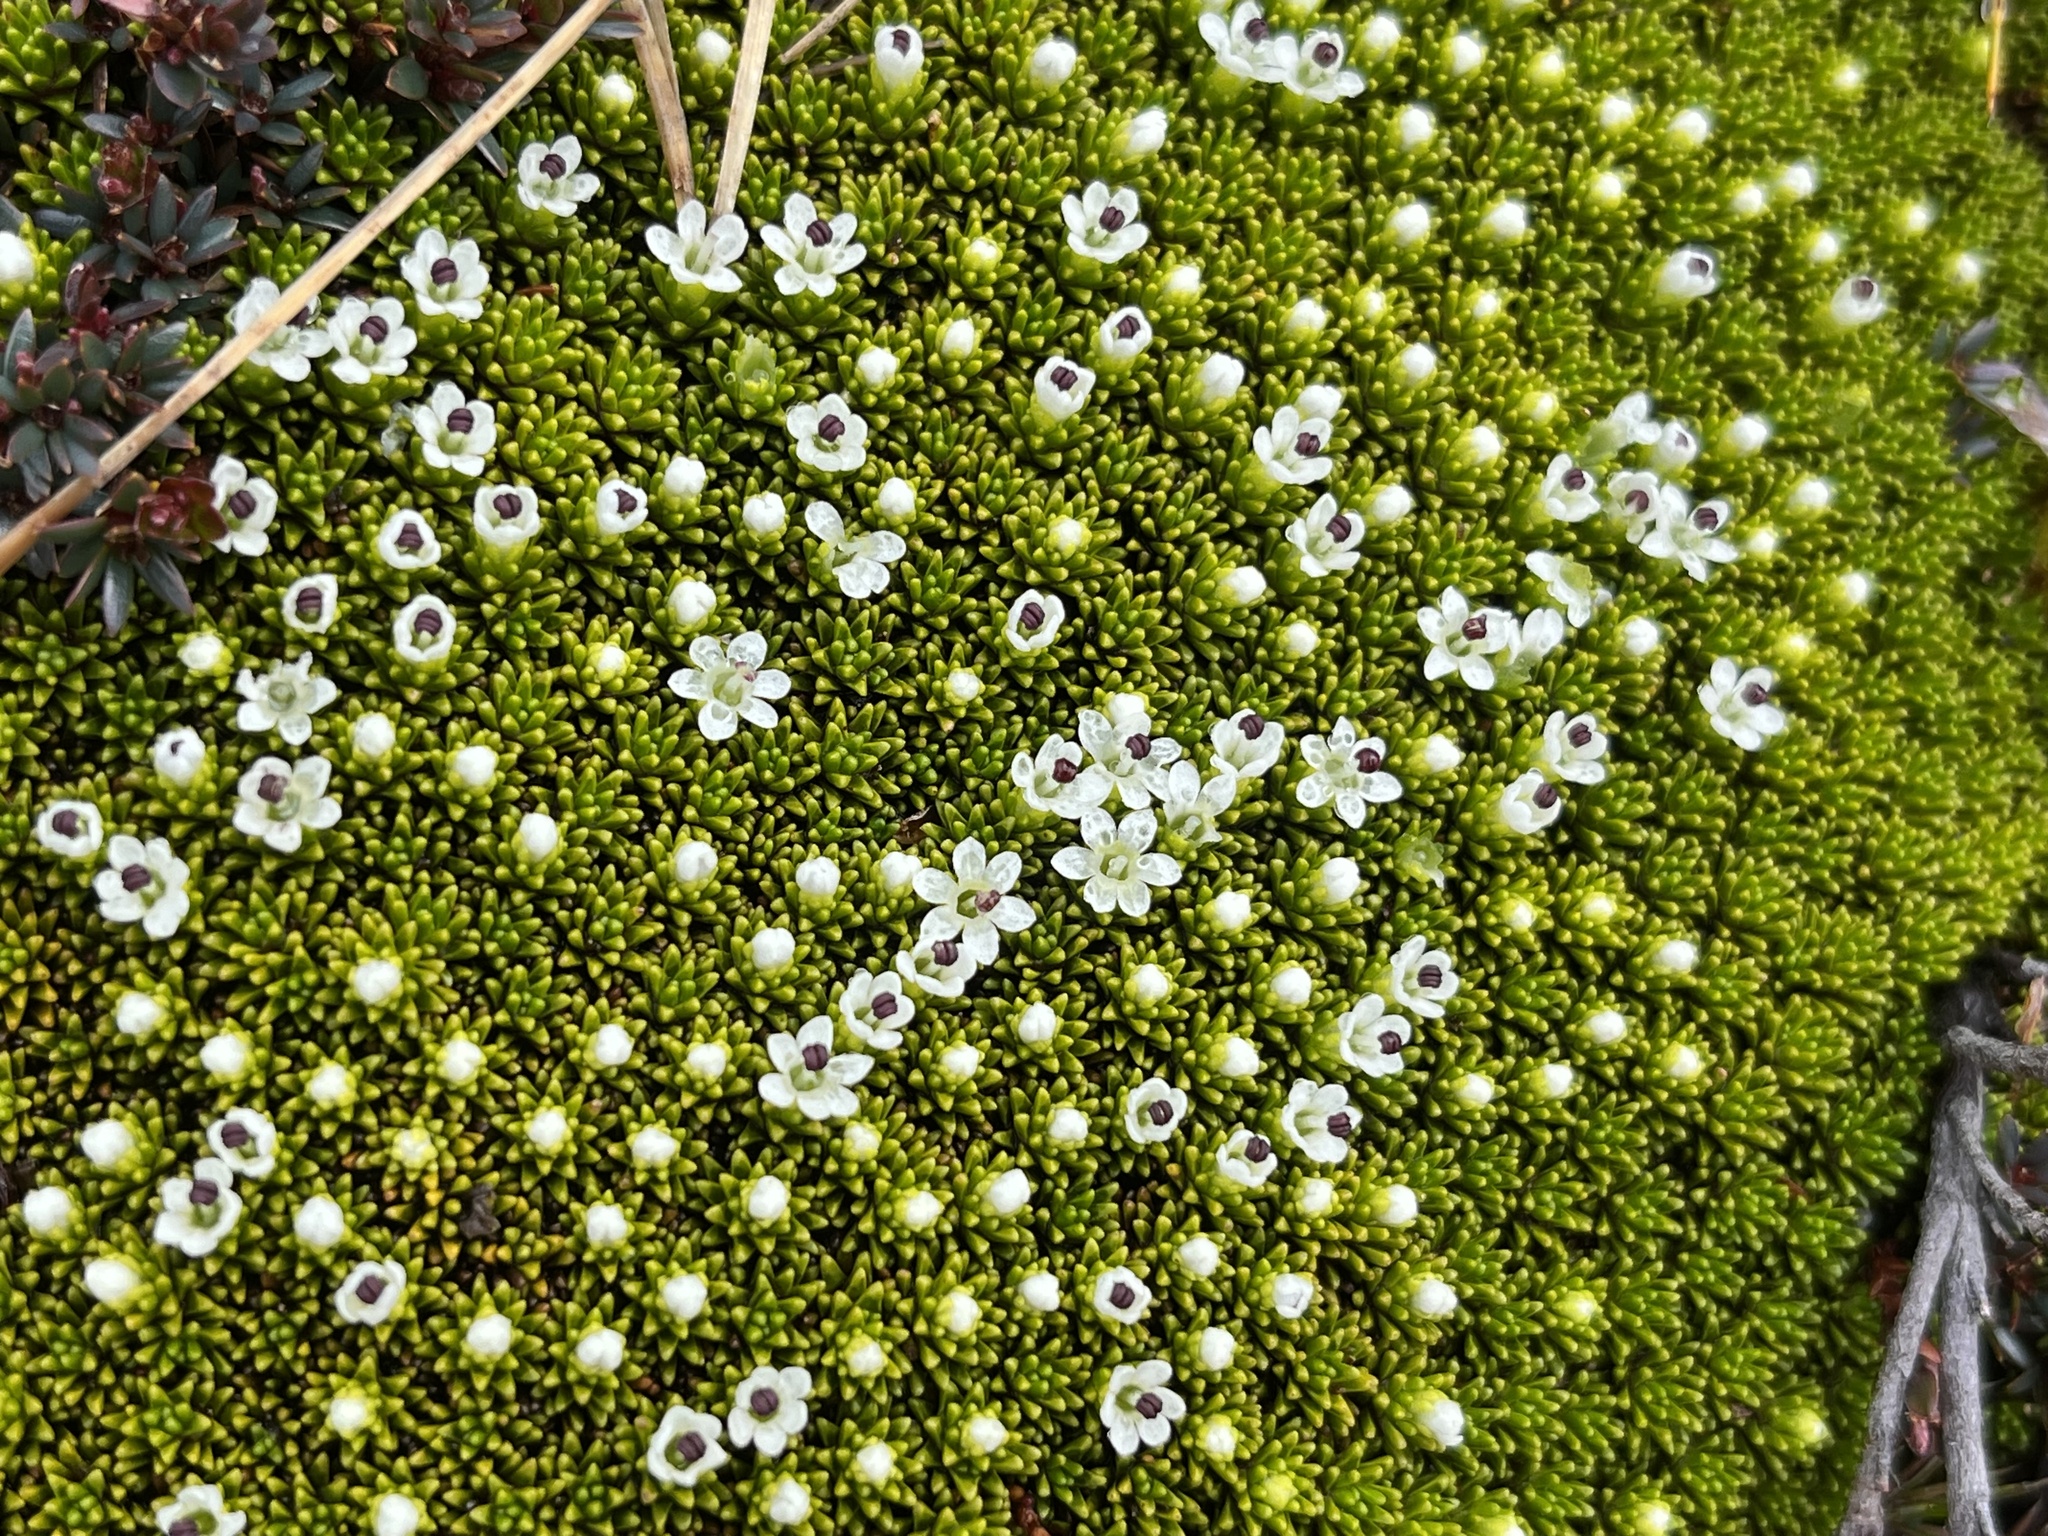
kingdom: Plantae
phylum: Tracheophyta
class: Magnoliopsida
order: Asterales
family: Stylidiaceae
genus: Phyllachne
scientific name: Phyllachne colensoi
